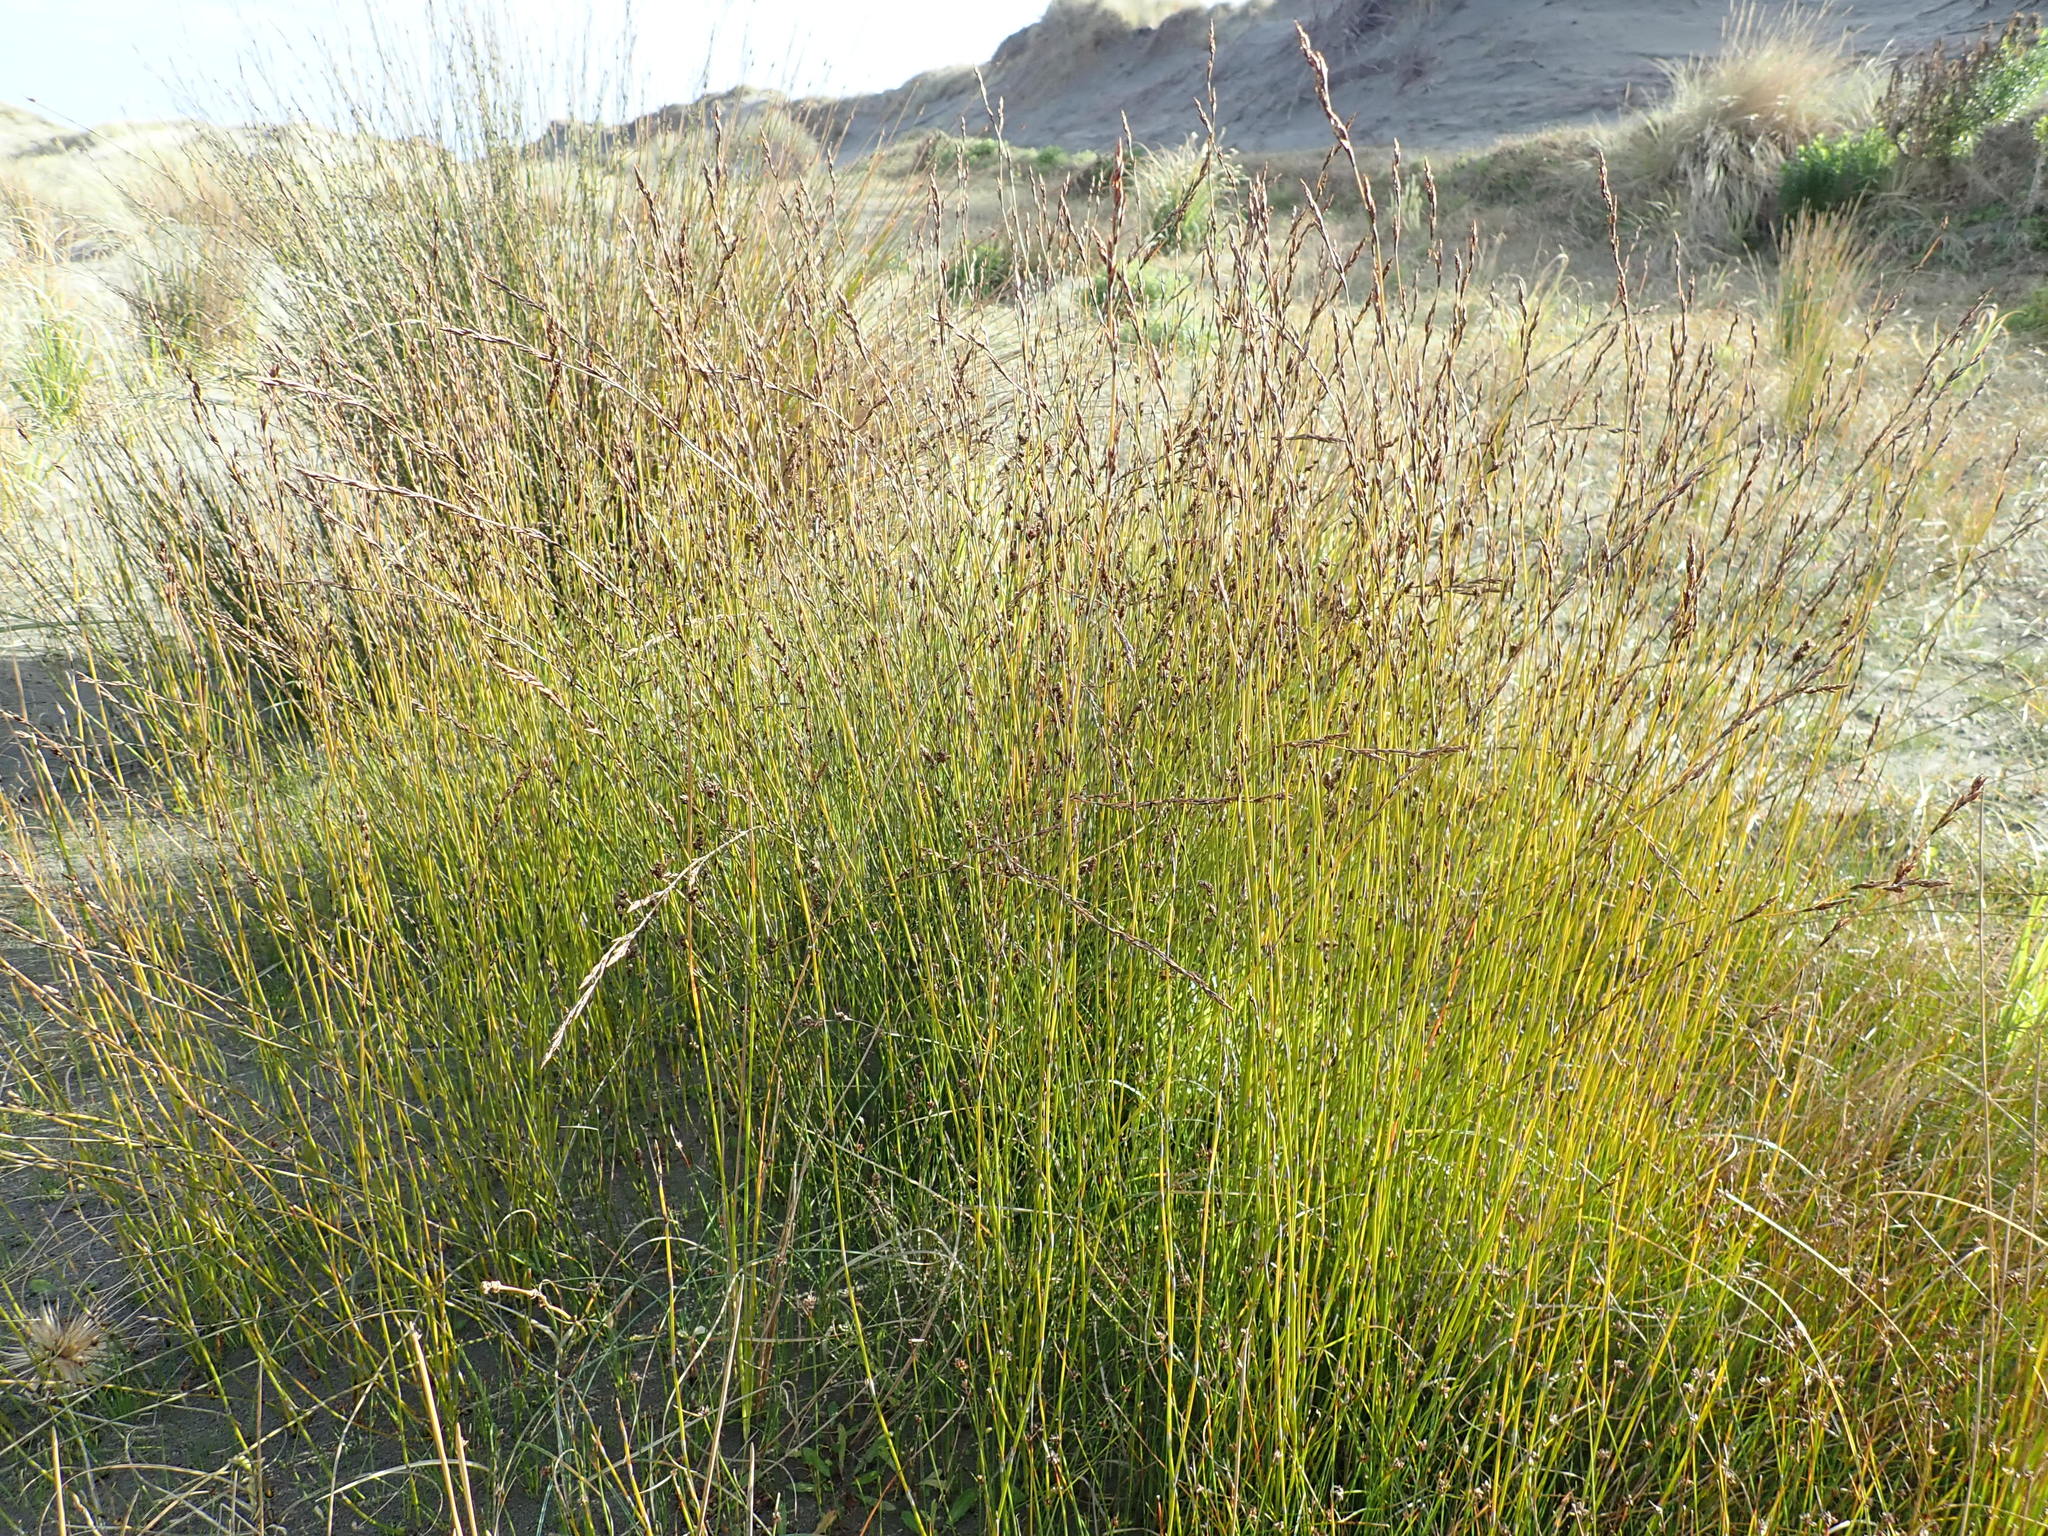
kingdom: Plantae
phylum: Tracheophyta
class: Liliopsida
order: Poales
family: Restionaceae
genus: Apodasmia
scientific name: Apodasmia similis
